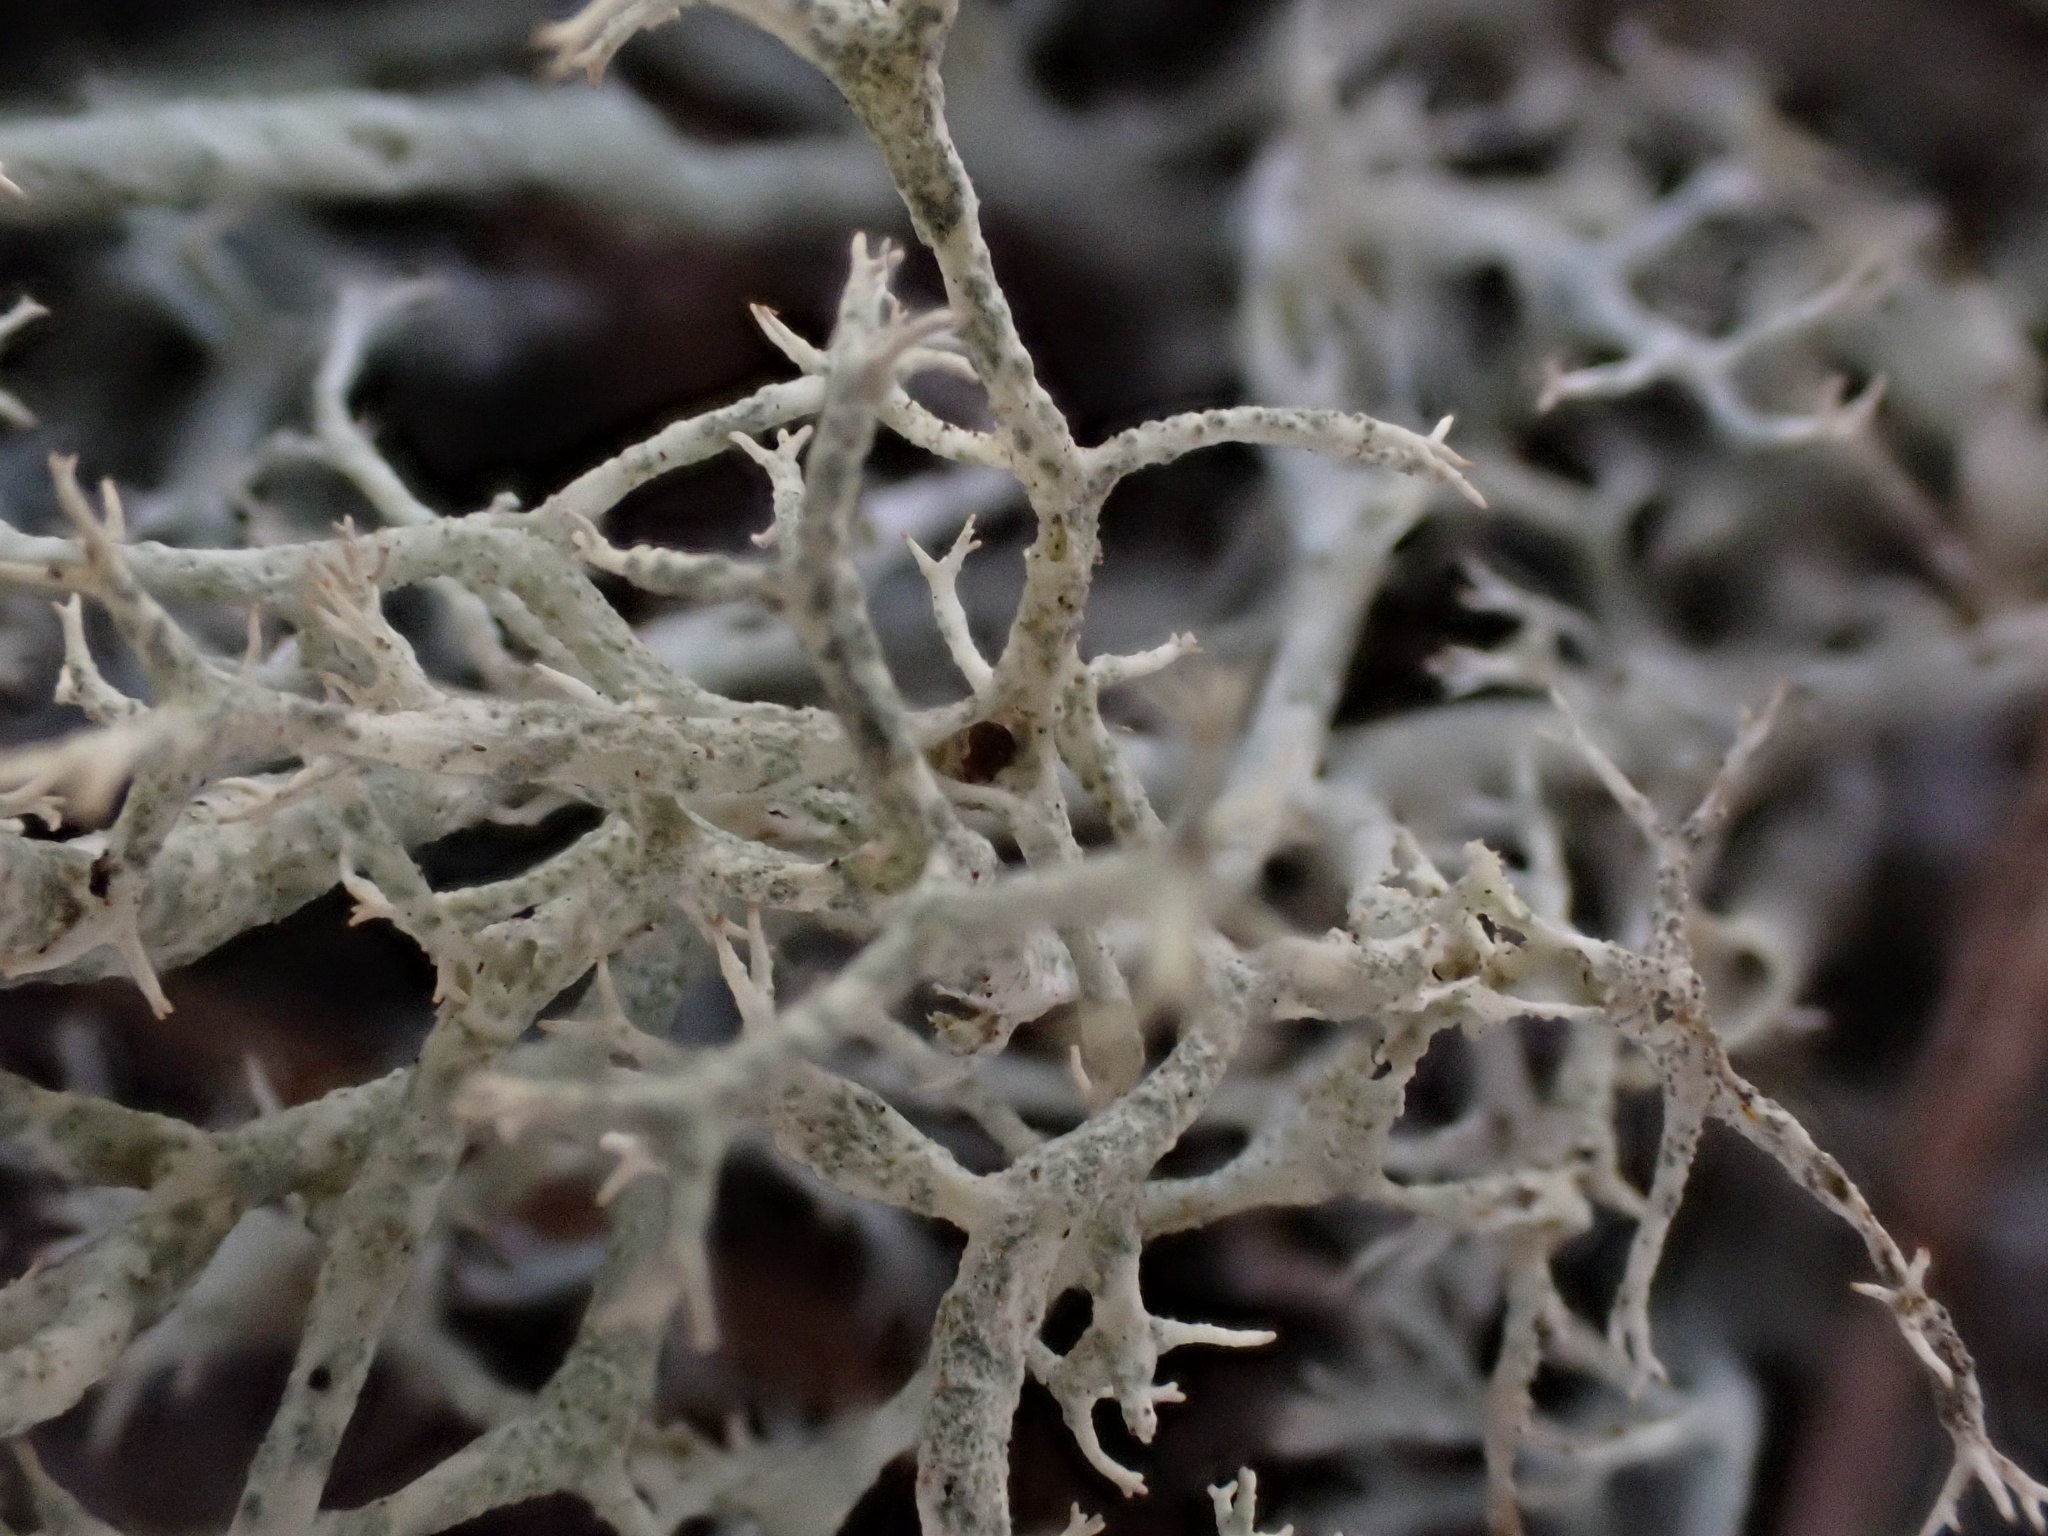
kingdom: Fungi
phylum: Ascomycota
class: Lecanoromycetes
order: Lecanorales
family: Cladoniaceae
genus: Cladonia
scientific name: Cladonia portentosa
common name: Reindeer lichen
